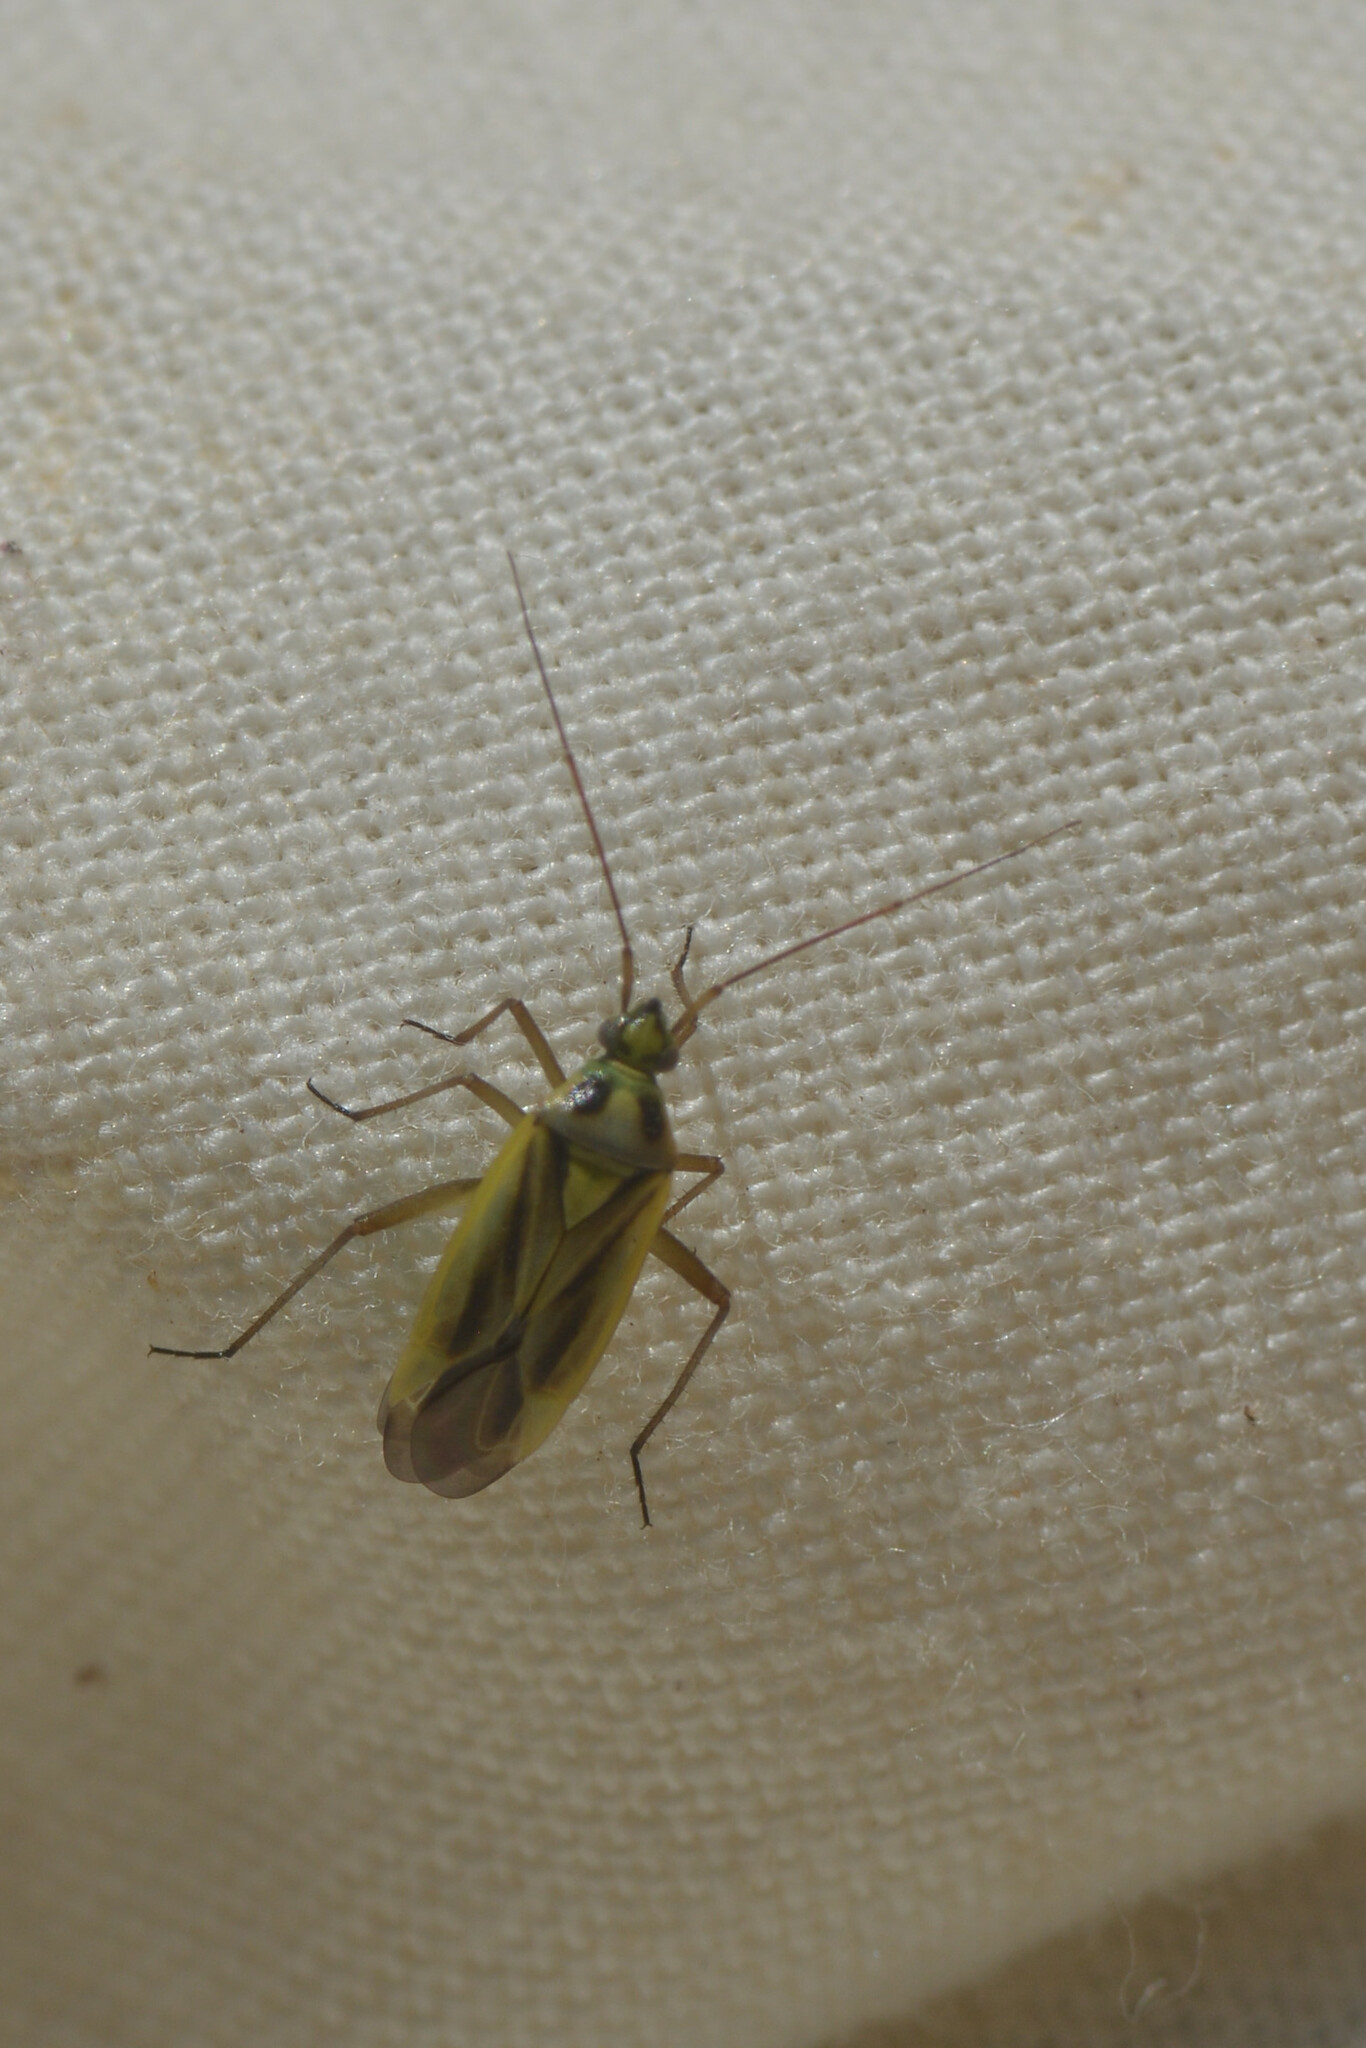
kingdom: Animalia
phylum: Arthropoda
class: Insecta
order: Hemiptera
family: Miridae
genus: Stenotus
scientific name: Stenotus binotatus
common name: Plant bug
